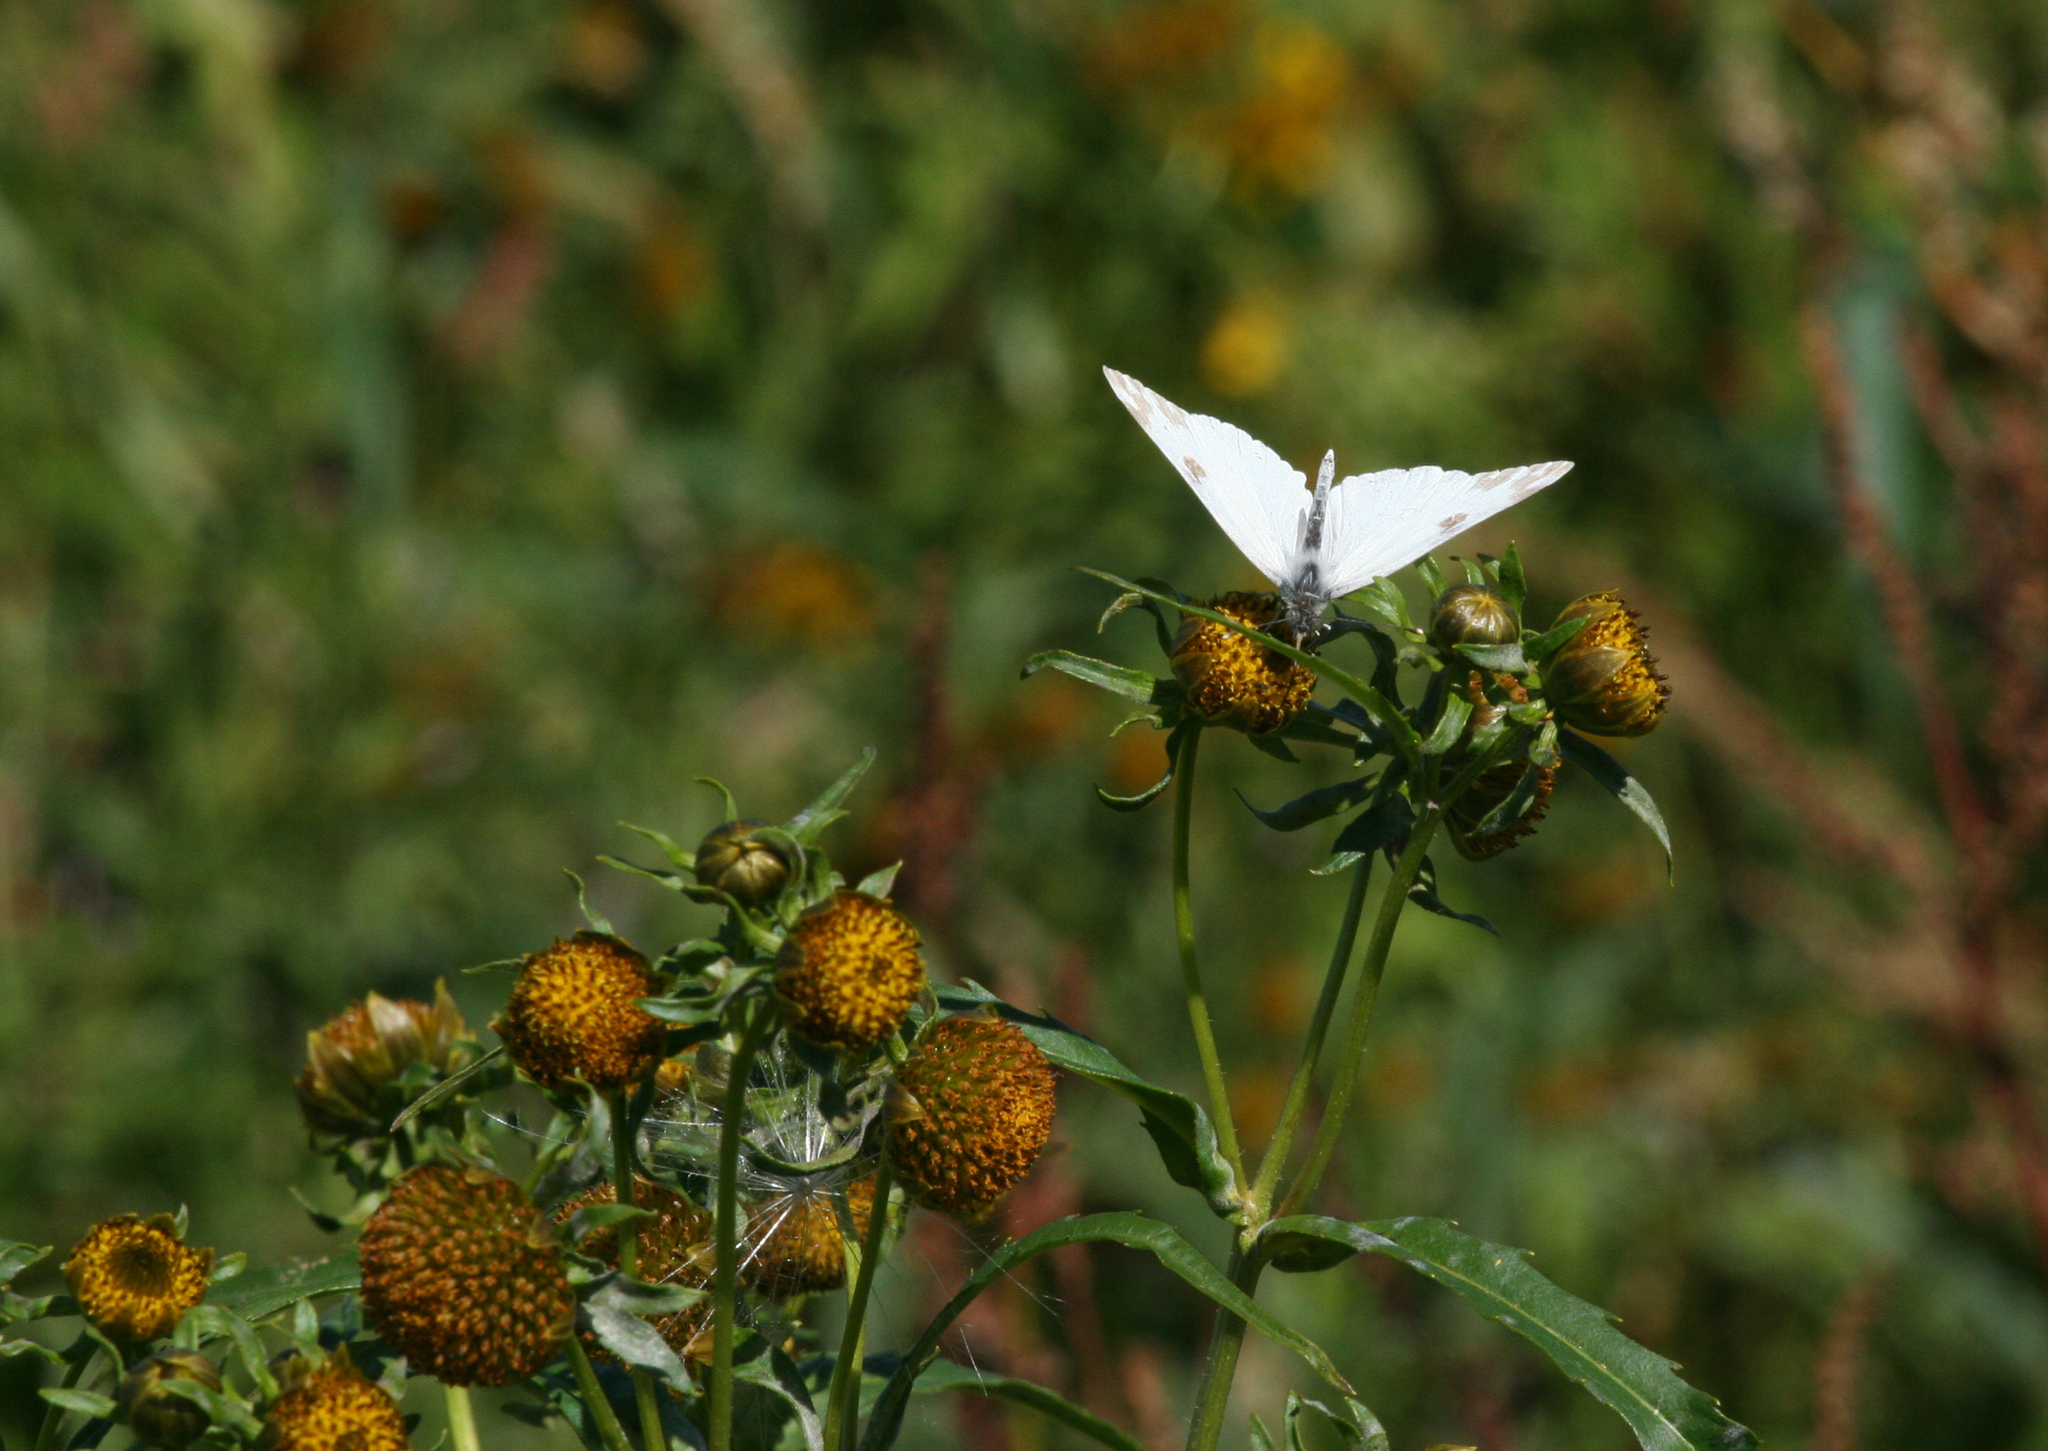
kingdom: Plantae
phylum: Tracheophyta
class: Magnoliopsida
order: Asterales
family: Asteraceae
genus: Bidens
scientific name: Bidens cernua
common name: Nodding bur-marigold
